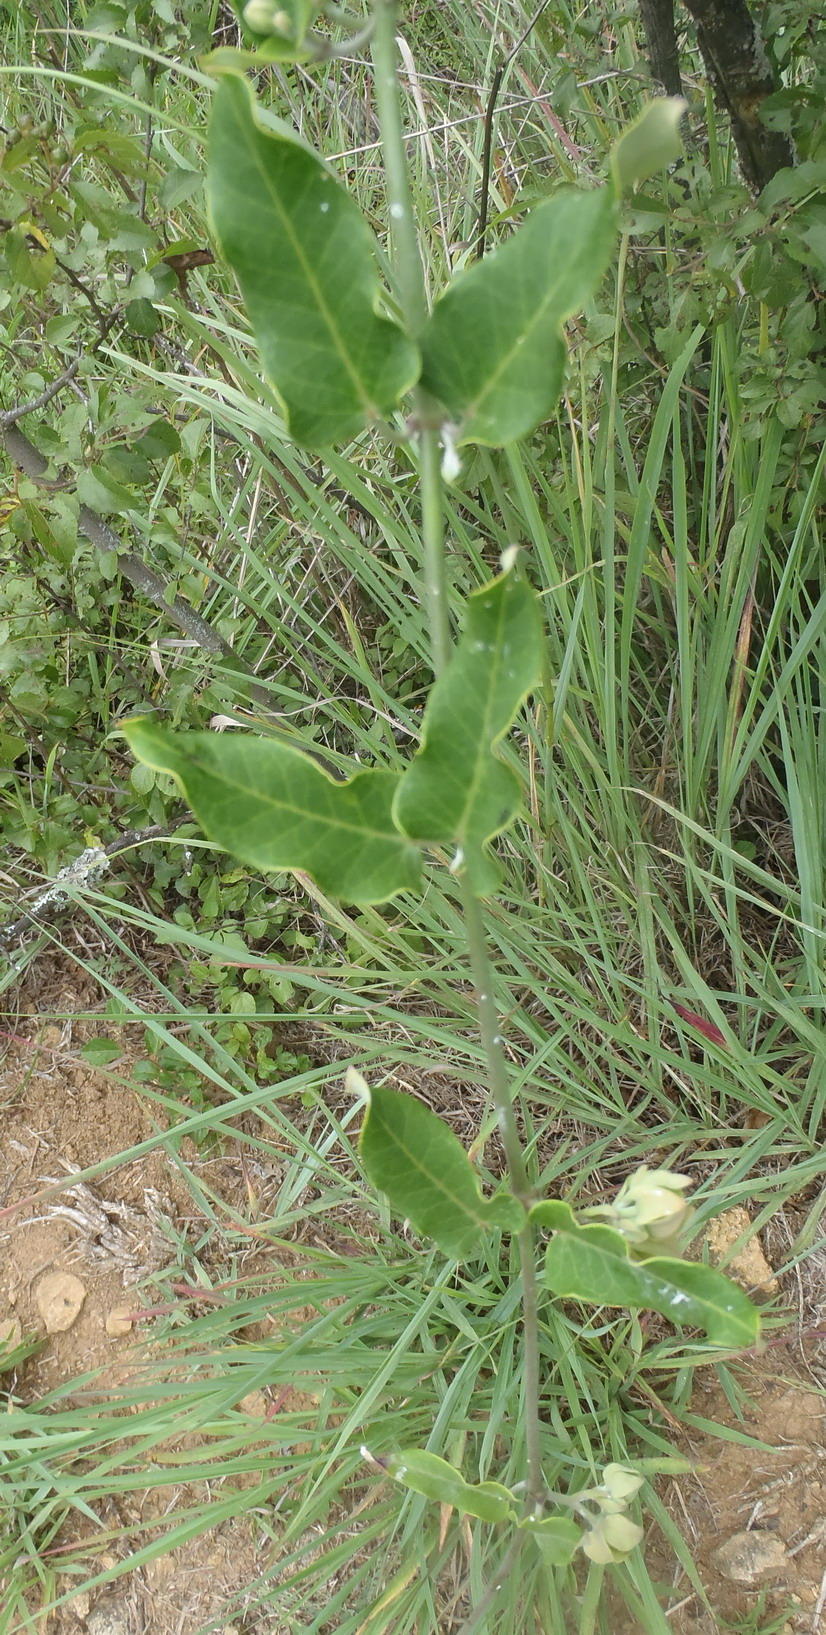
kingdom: Plantae
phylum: Tracheophyta
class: Magnoliopsida
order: Gentianales
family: Apocynaceae
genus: Araujia
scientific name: Araujia sericifera
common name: White bladderflower
